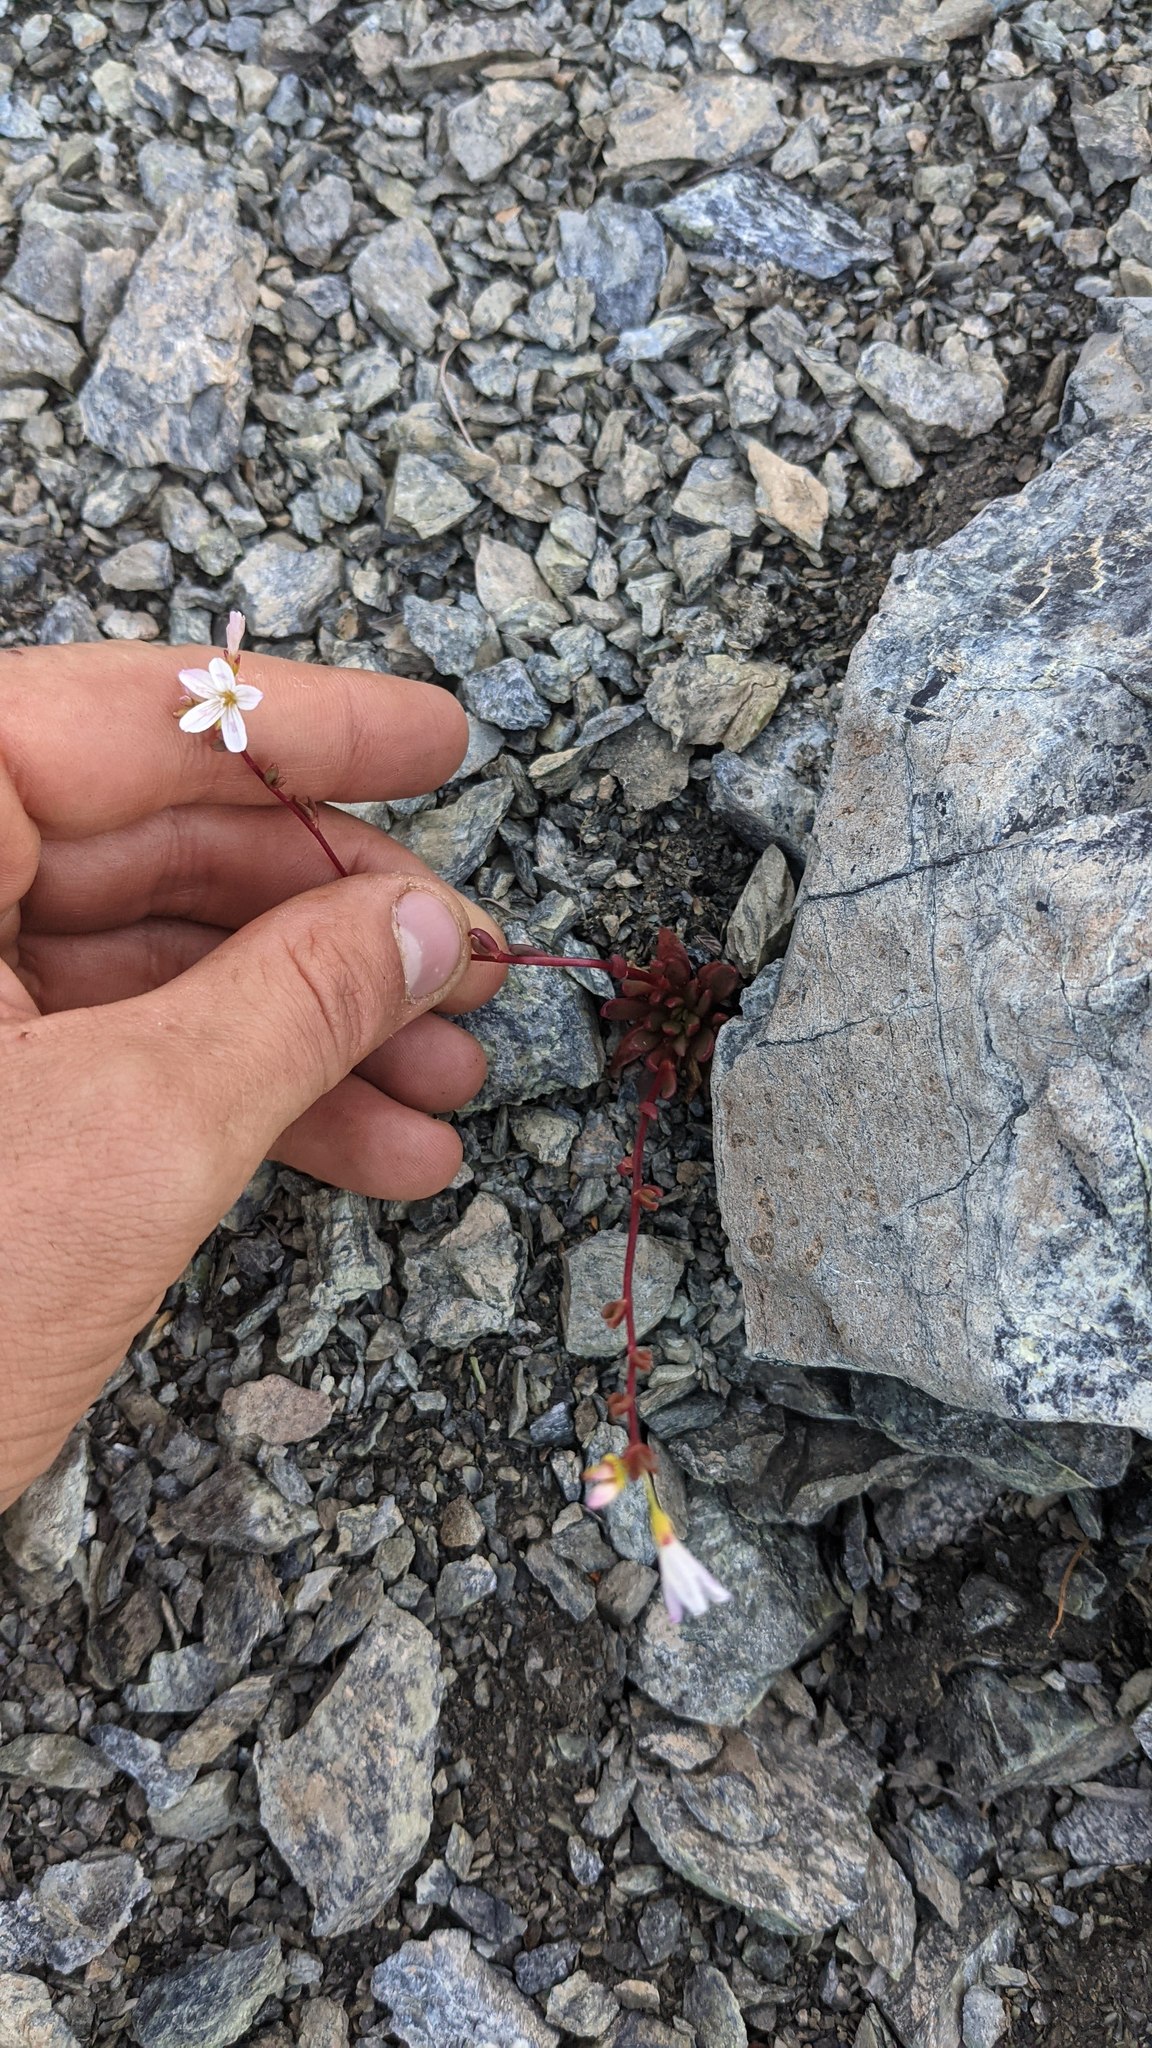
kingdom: Plantae
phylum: Tracheophyta
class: Magnoliopsida
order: Caryophyllales
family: Montiaceae
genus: Montia
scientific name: Montia parvifolia
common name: Small-leaved blinks
